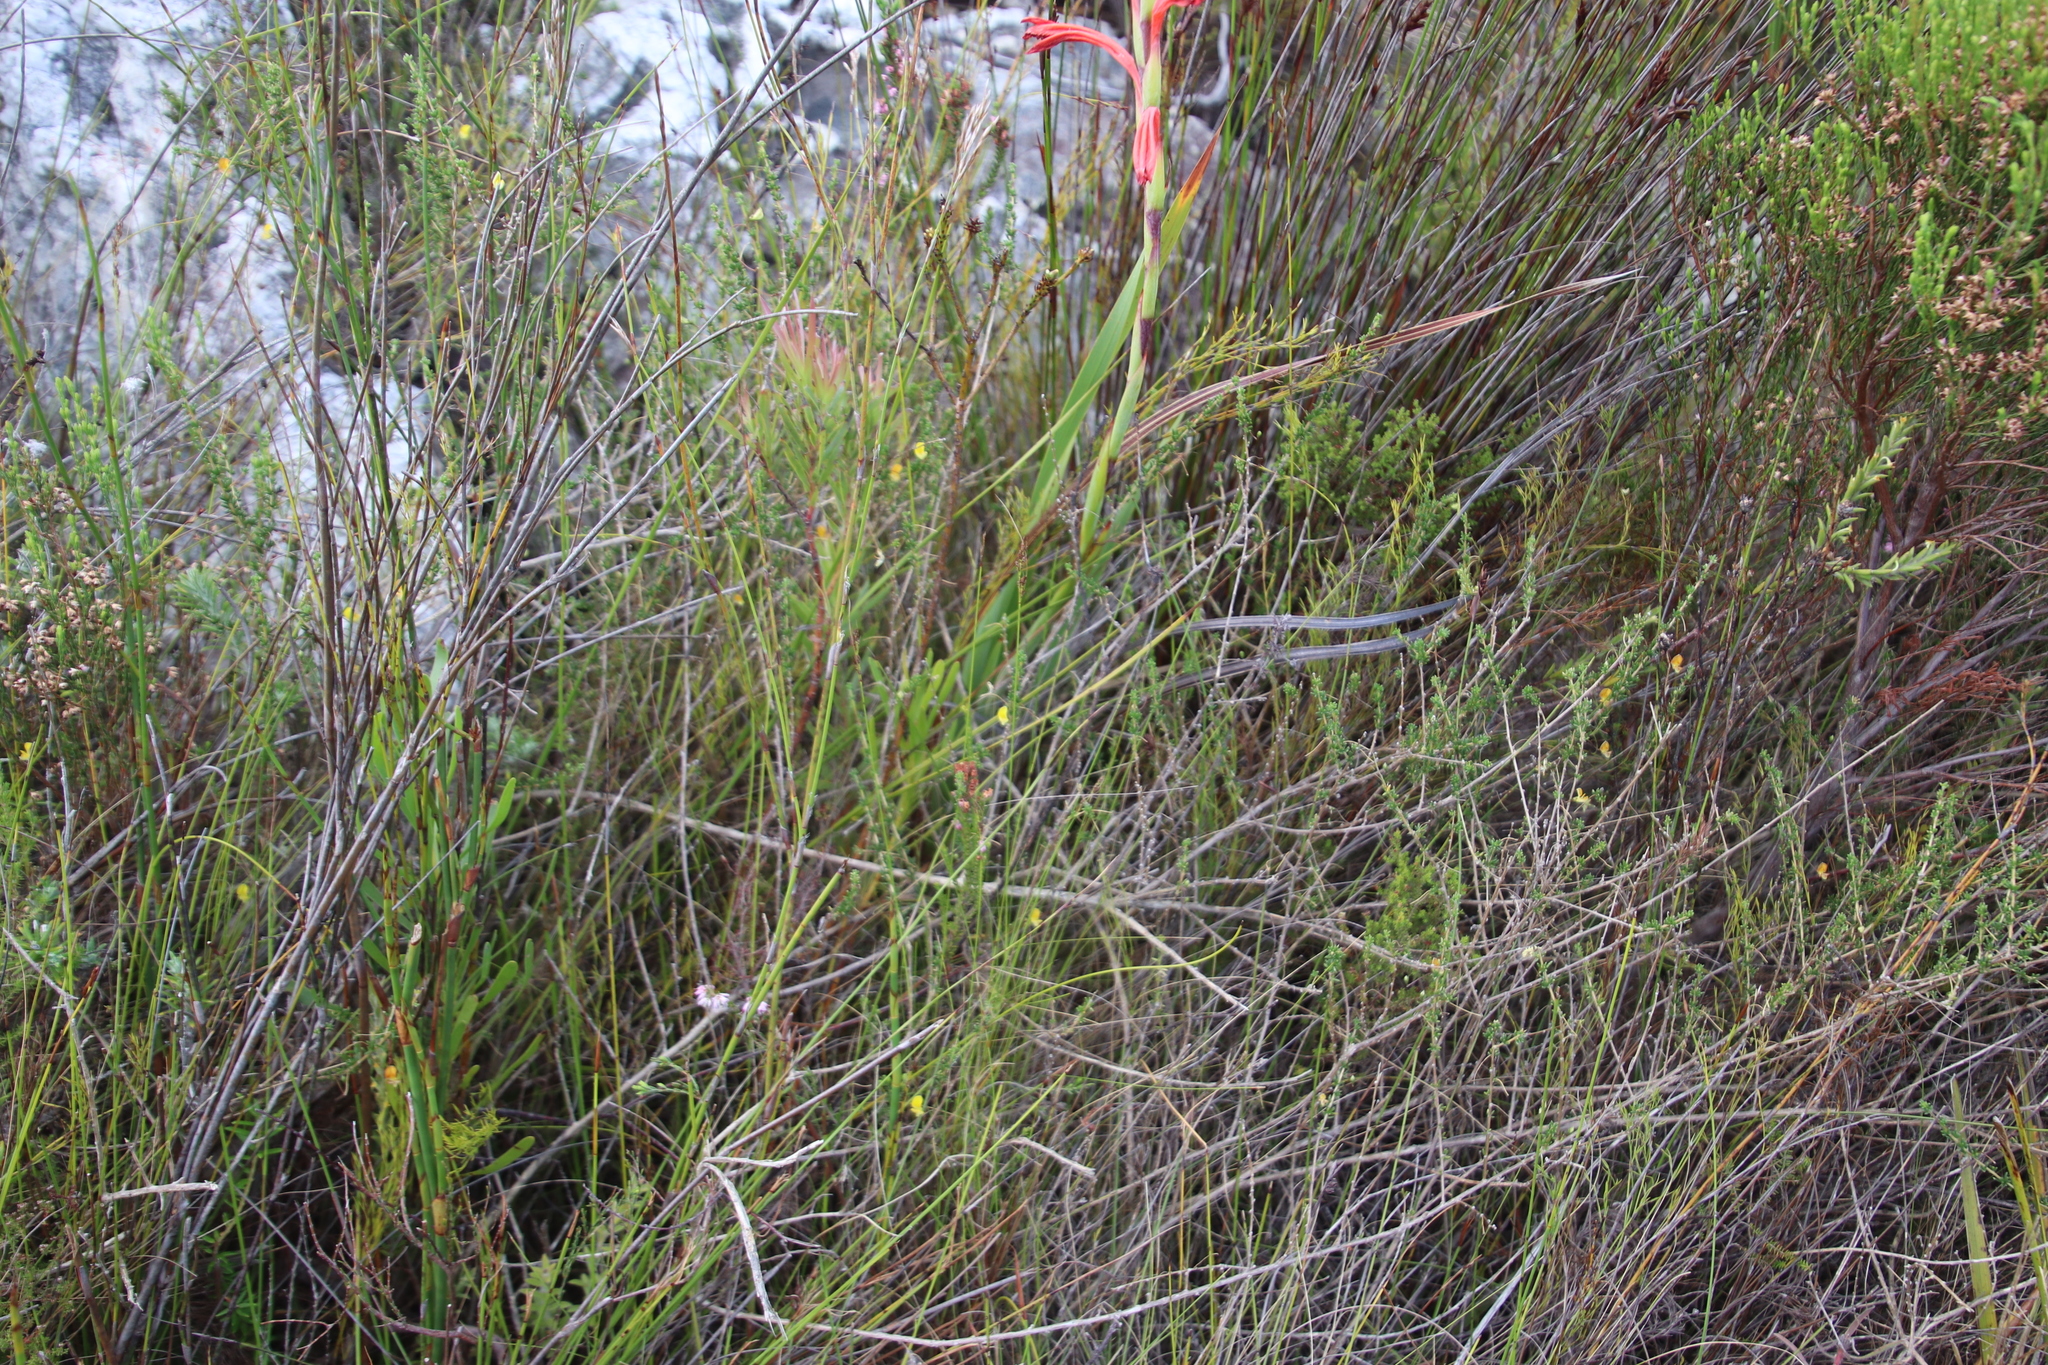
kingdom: Plantae
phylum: Tracheophyta
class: Magnoliopsida
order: Fabales
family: Fabaceae
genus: Aspalathus
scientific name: Aspalathus serpens
